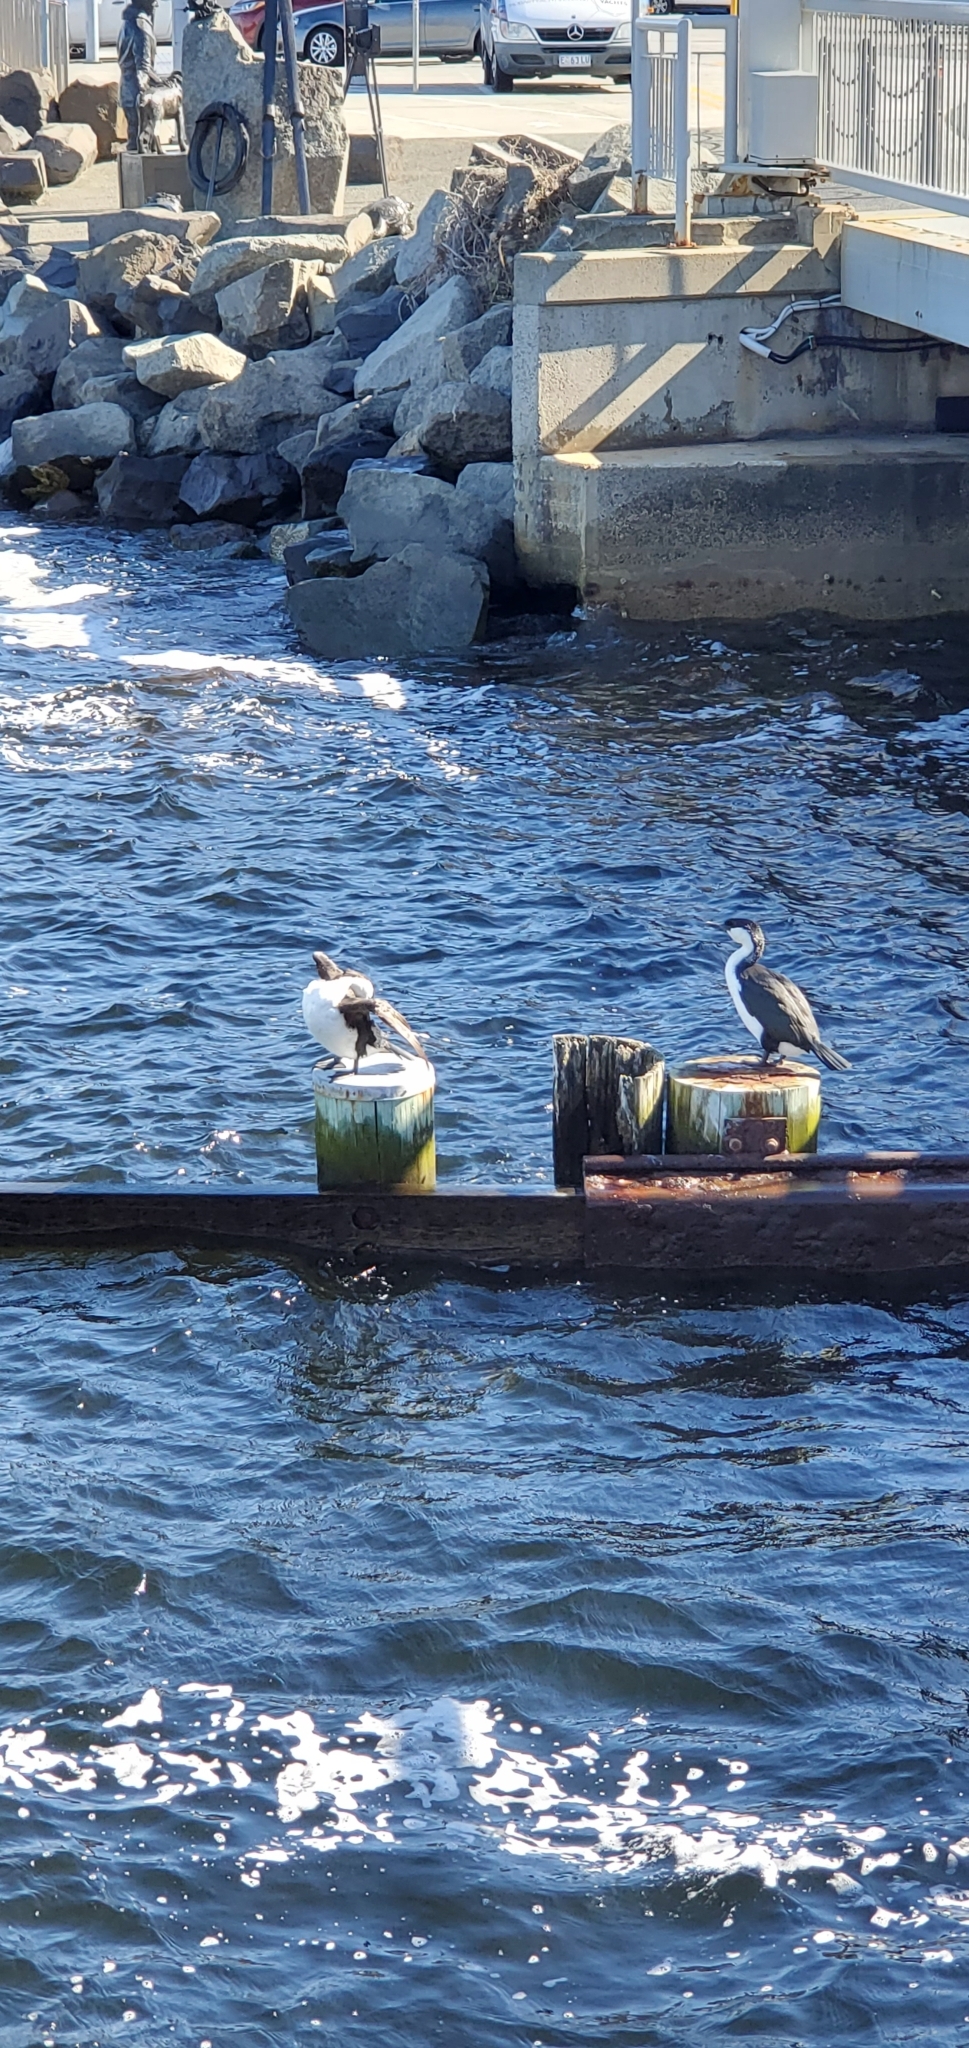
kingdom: Animalia
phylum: Chordata
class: Aves
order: Suliformes
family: Phalacrocoracidae
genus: Phalacrocorax
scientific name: Phalacrocorax fuscescens
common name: Black-faced cormorant
